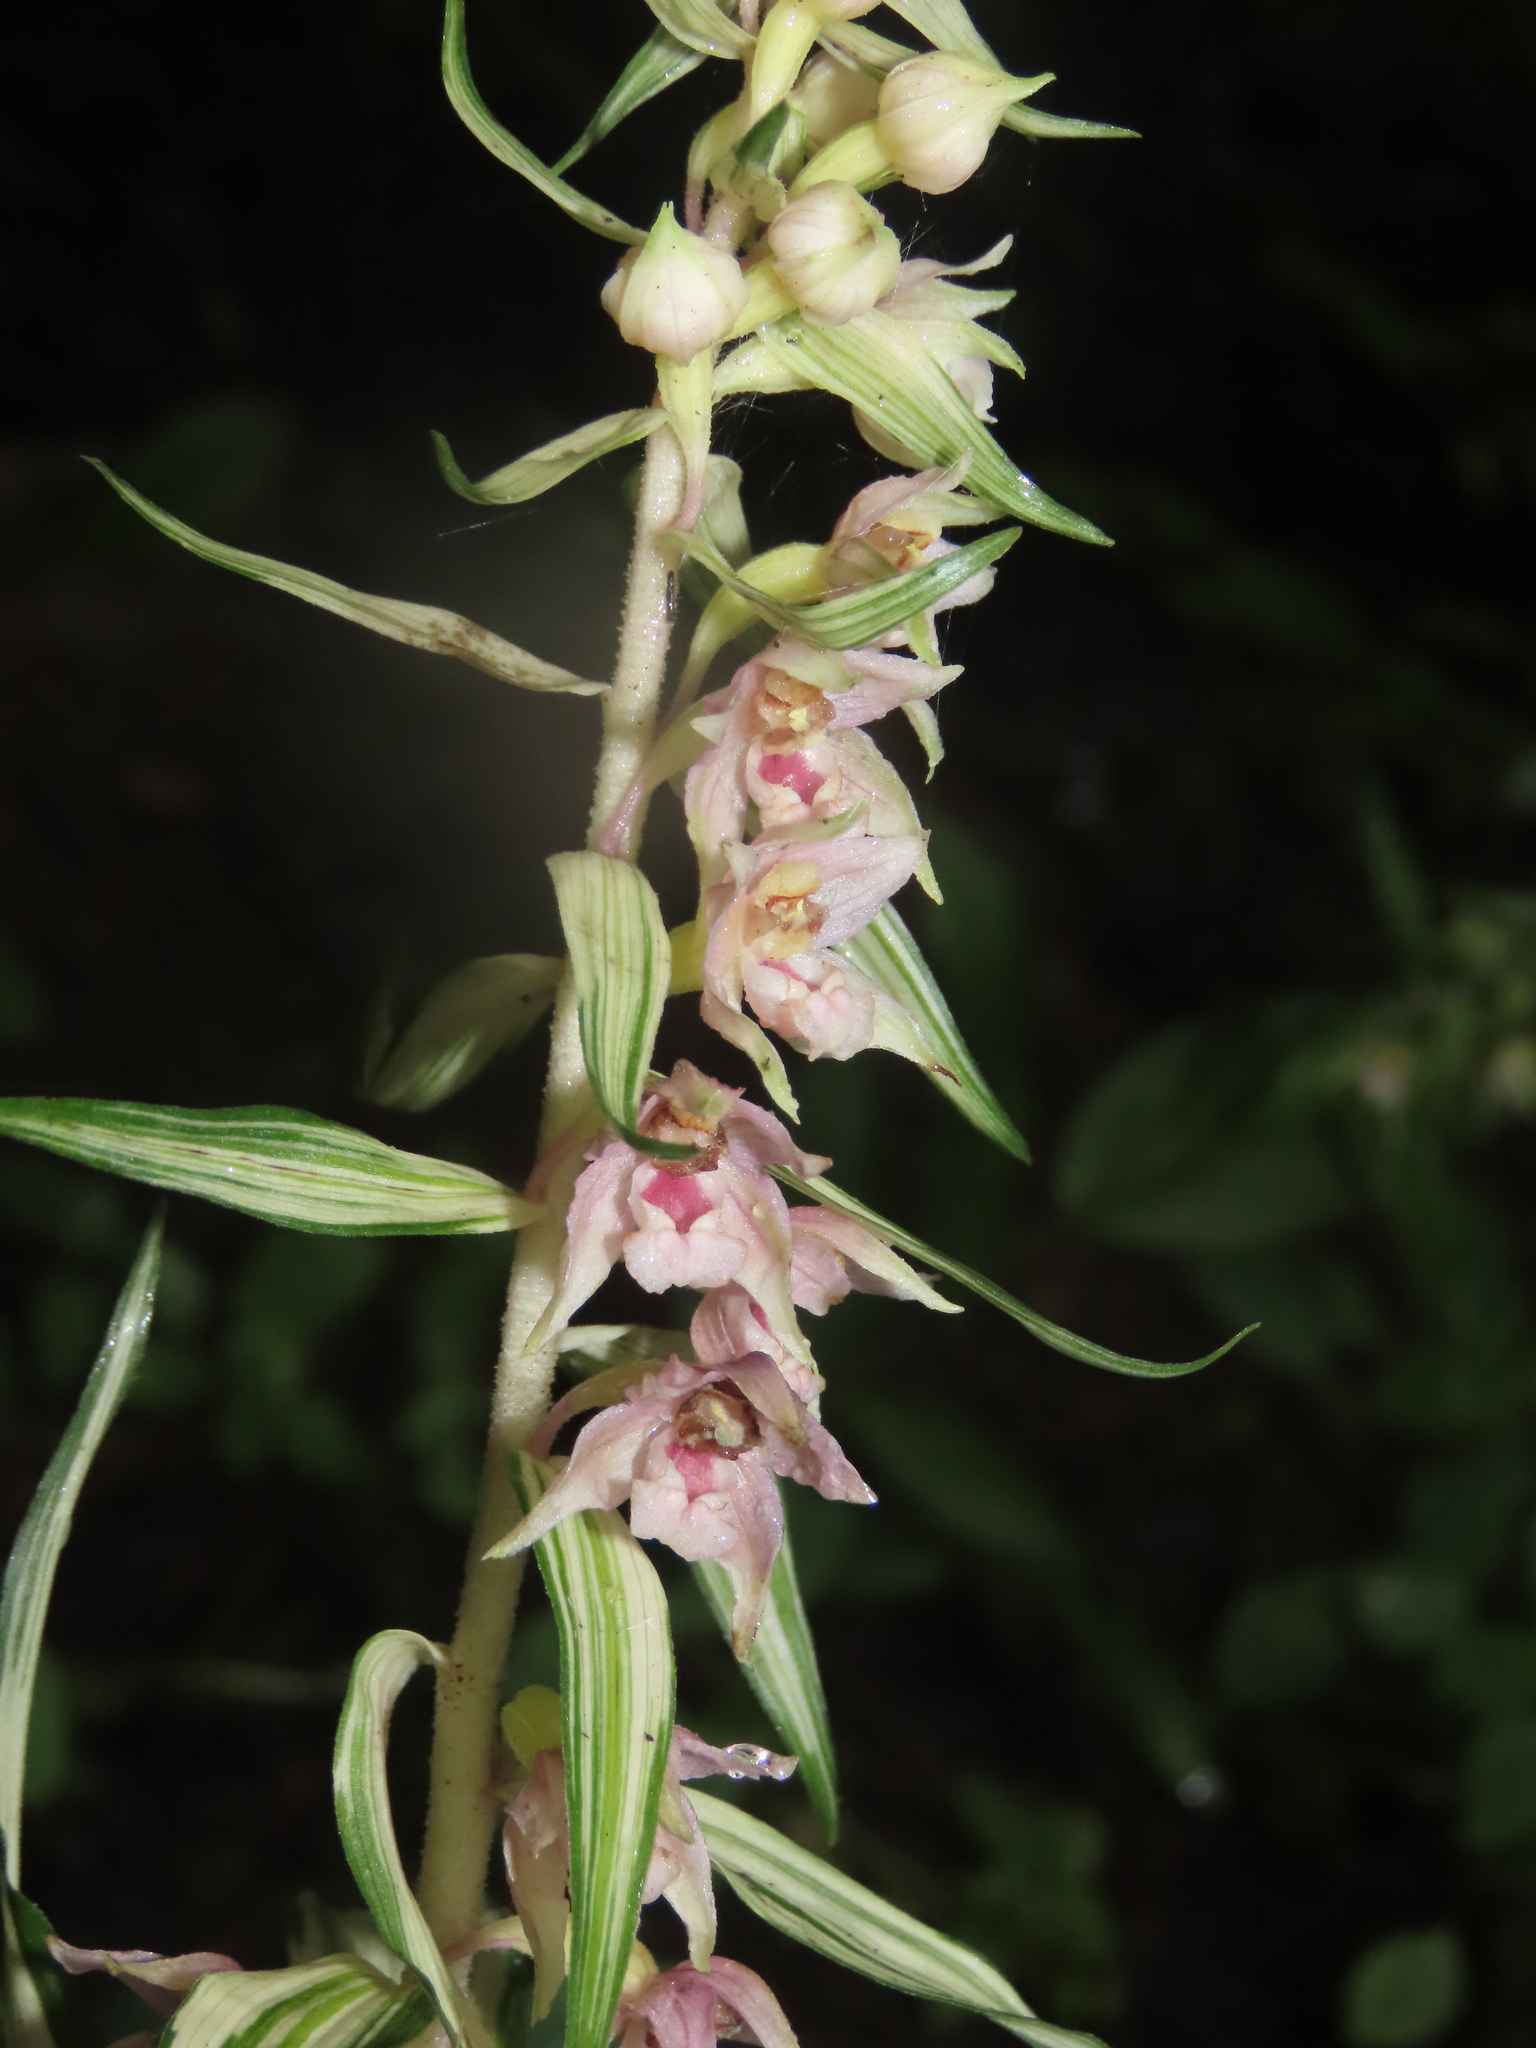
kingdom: Plantae
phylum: Tracheophyta
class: Liliopsida
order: Asparagales
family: Orchidaceae
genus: Epipactis
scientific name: Epipactis helleborine
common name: Broad-leaved helleborine
